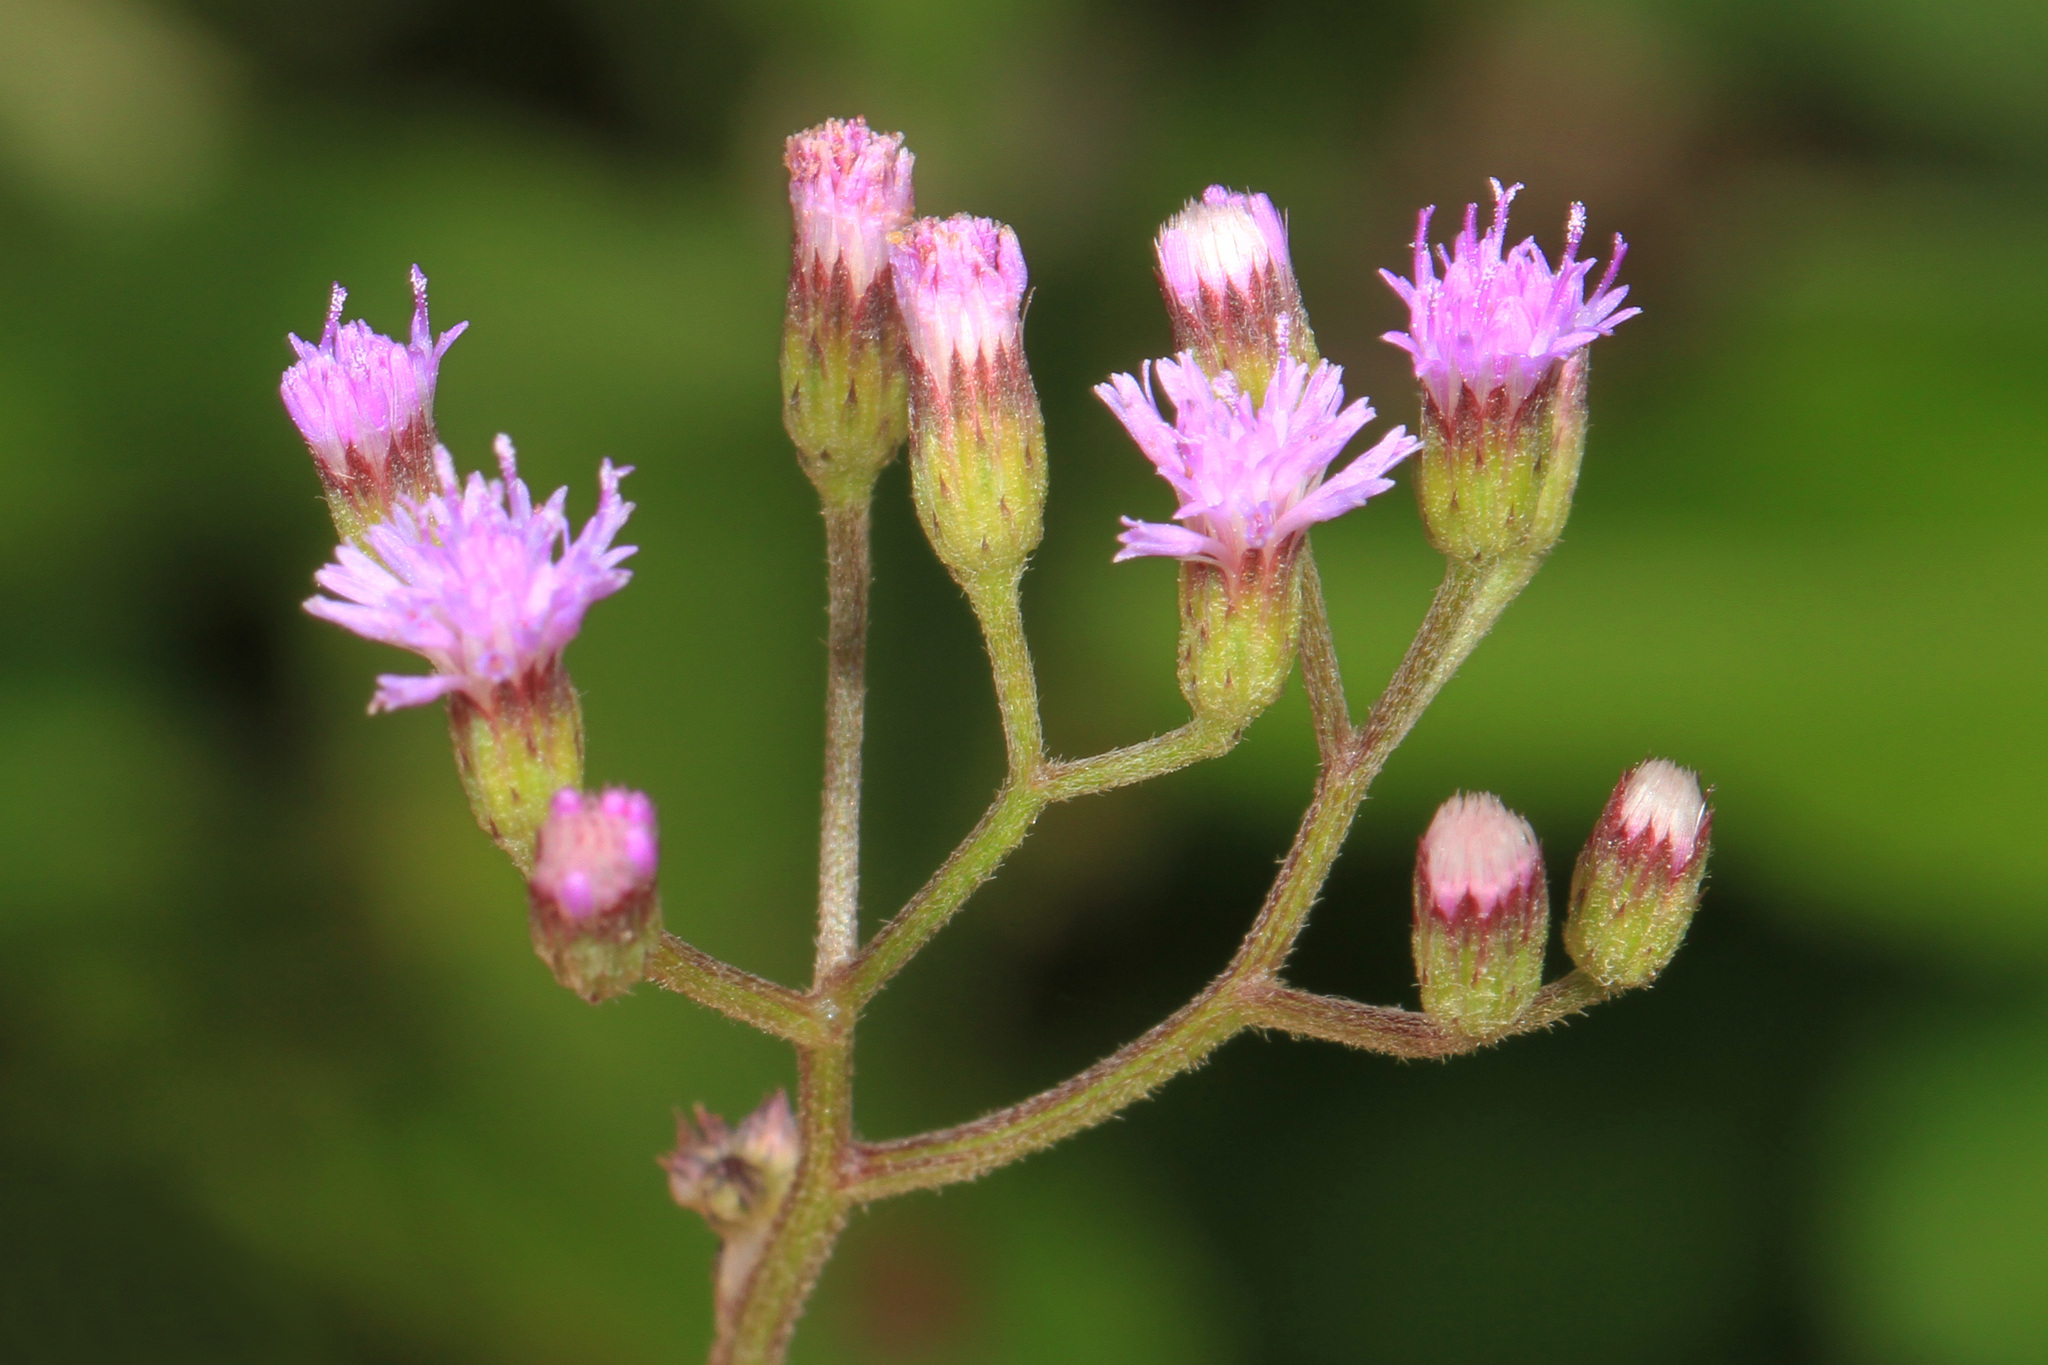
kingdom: Plantae
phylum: Tracheophyta
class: Magnoliopsida
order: Asterales
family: Asteraceae
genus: Emilia
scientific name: Emilia sonchifolia
